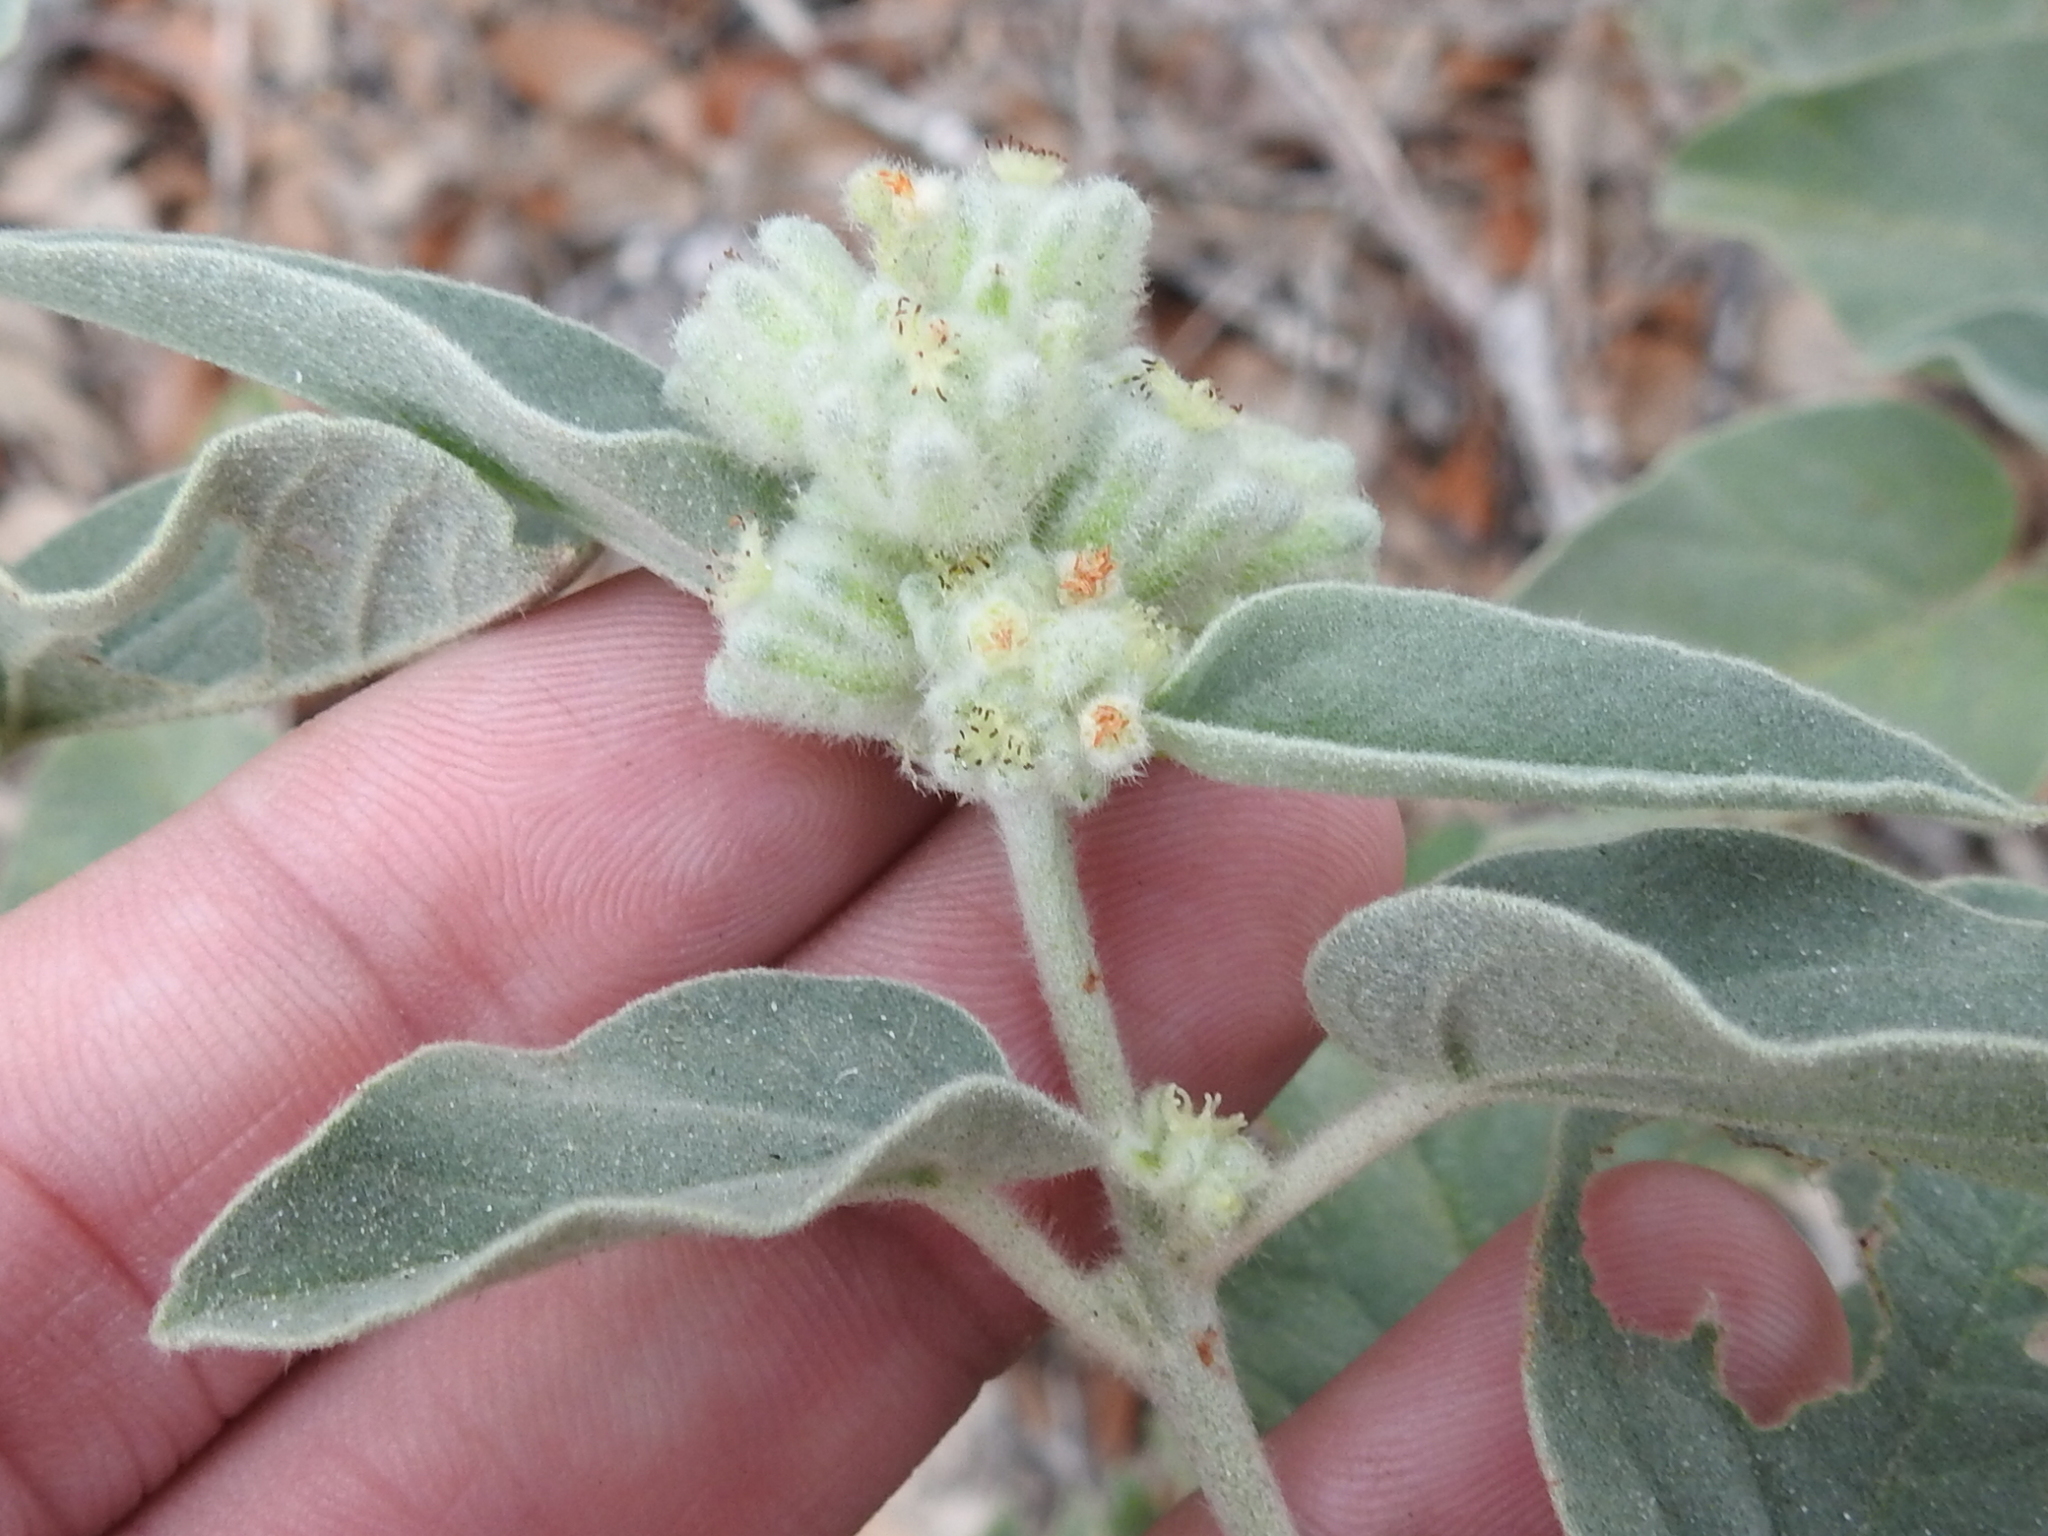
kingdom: Plantae
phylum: Tracheophyta
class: Magnoliopsida
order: Malpighiales
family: Euphorbiaceae
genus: Croton
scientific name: Croton heptalon
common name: Woolly croton
